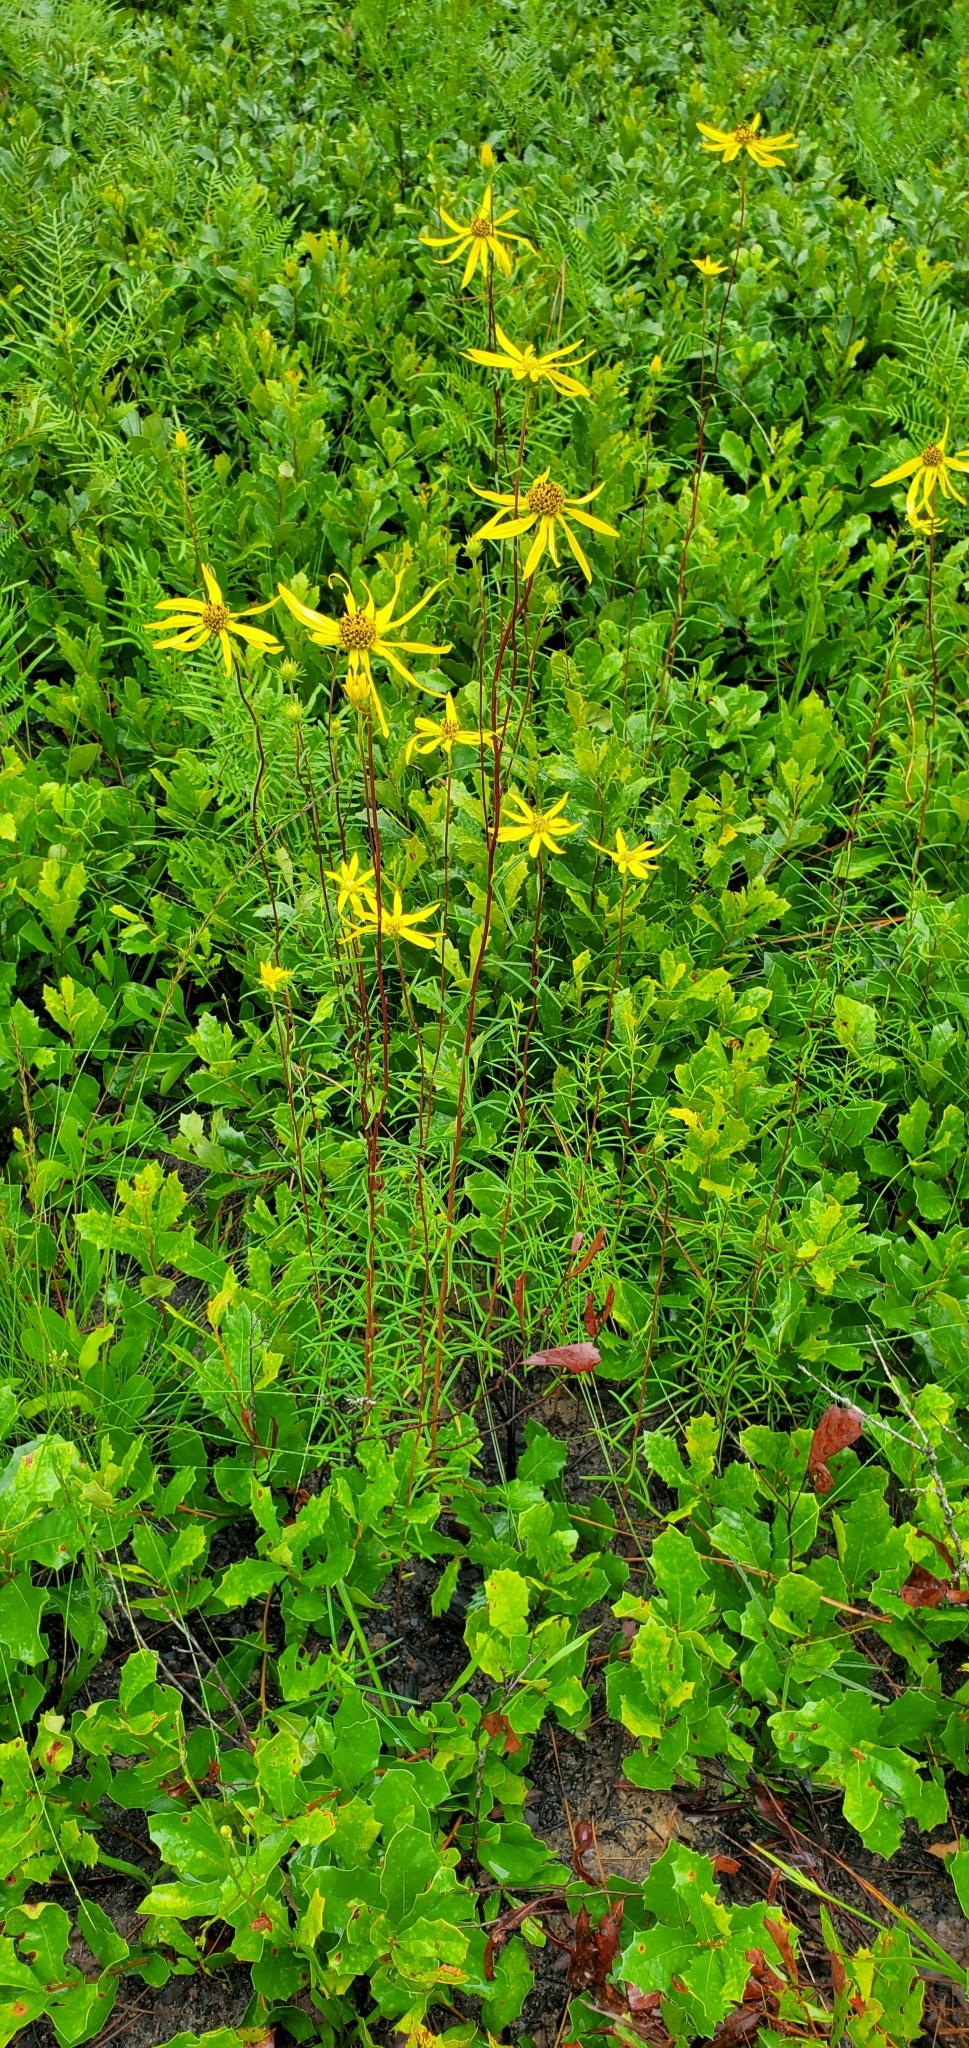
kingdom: Plantae
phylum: Tracheophyta
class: Magnoliopsida
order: Asterales
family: Asteraceae
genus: Phoebanthus
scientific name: Phoebanthus tenuifolia
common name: Pineland false sunflower
